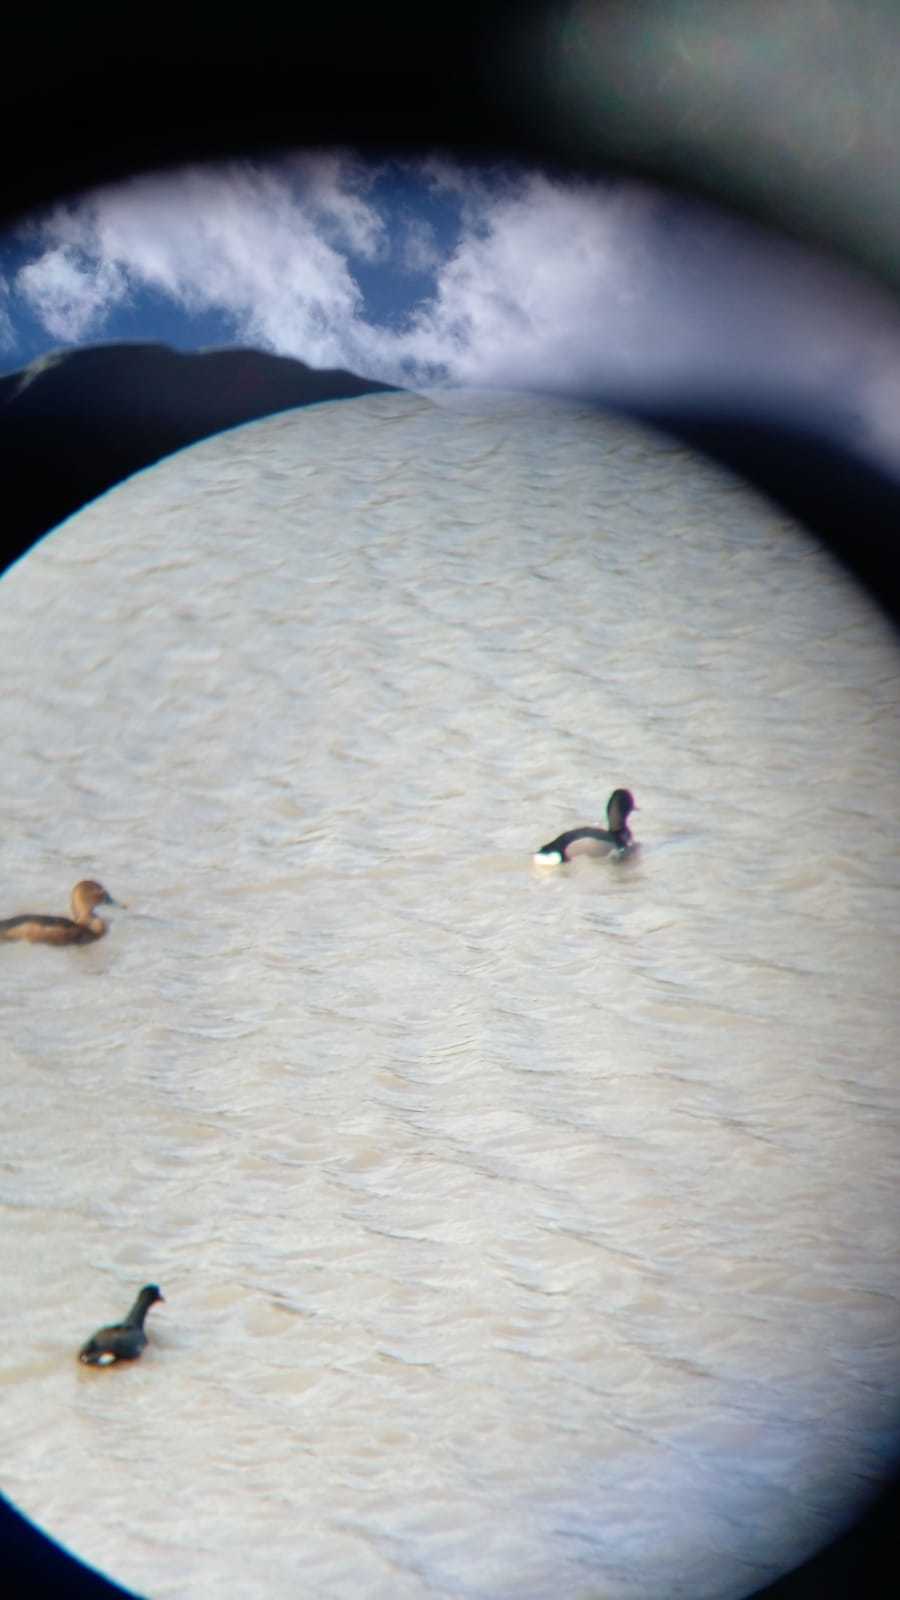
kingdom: Animalia
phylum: Chordata
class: Aves
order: Anseriformes
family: Anatidae
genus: Netta
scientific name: Netta peposaca
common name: Rosy-billed pochard
